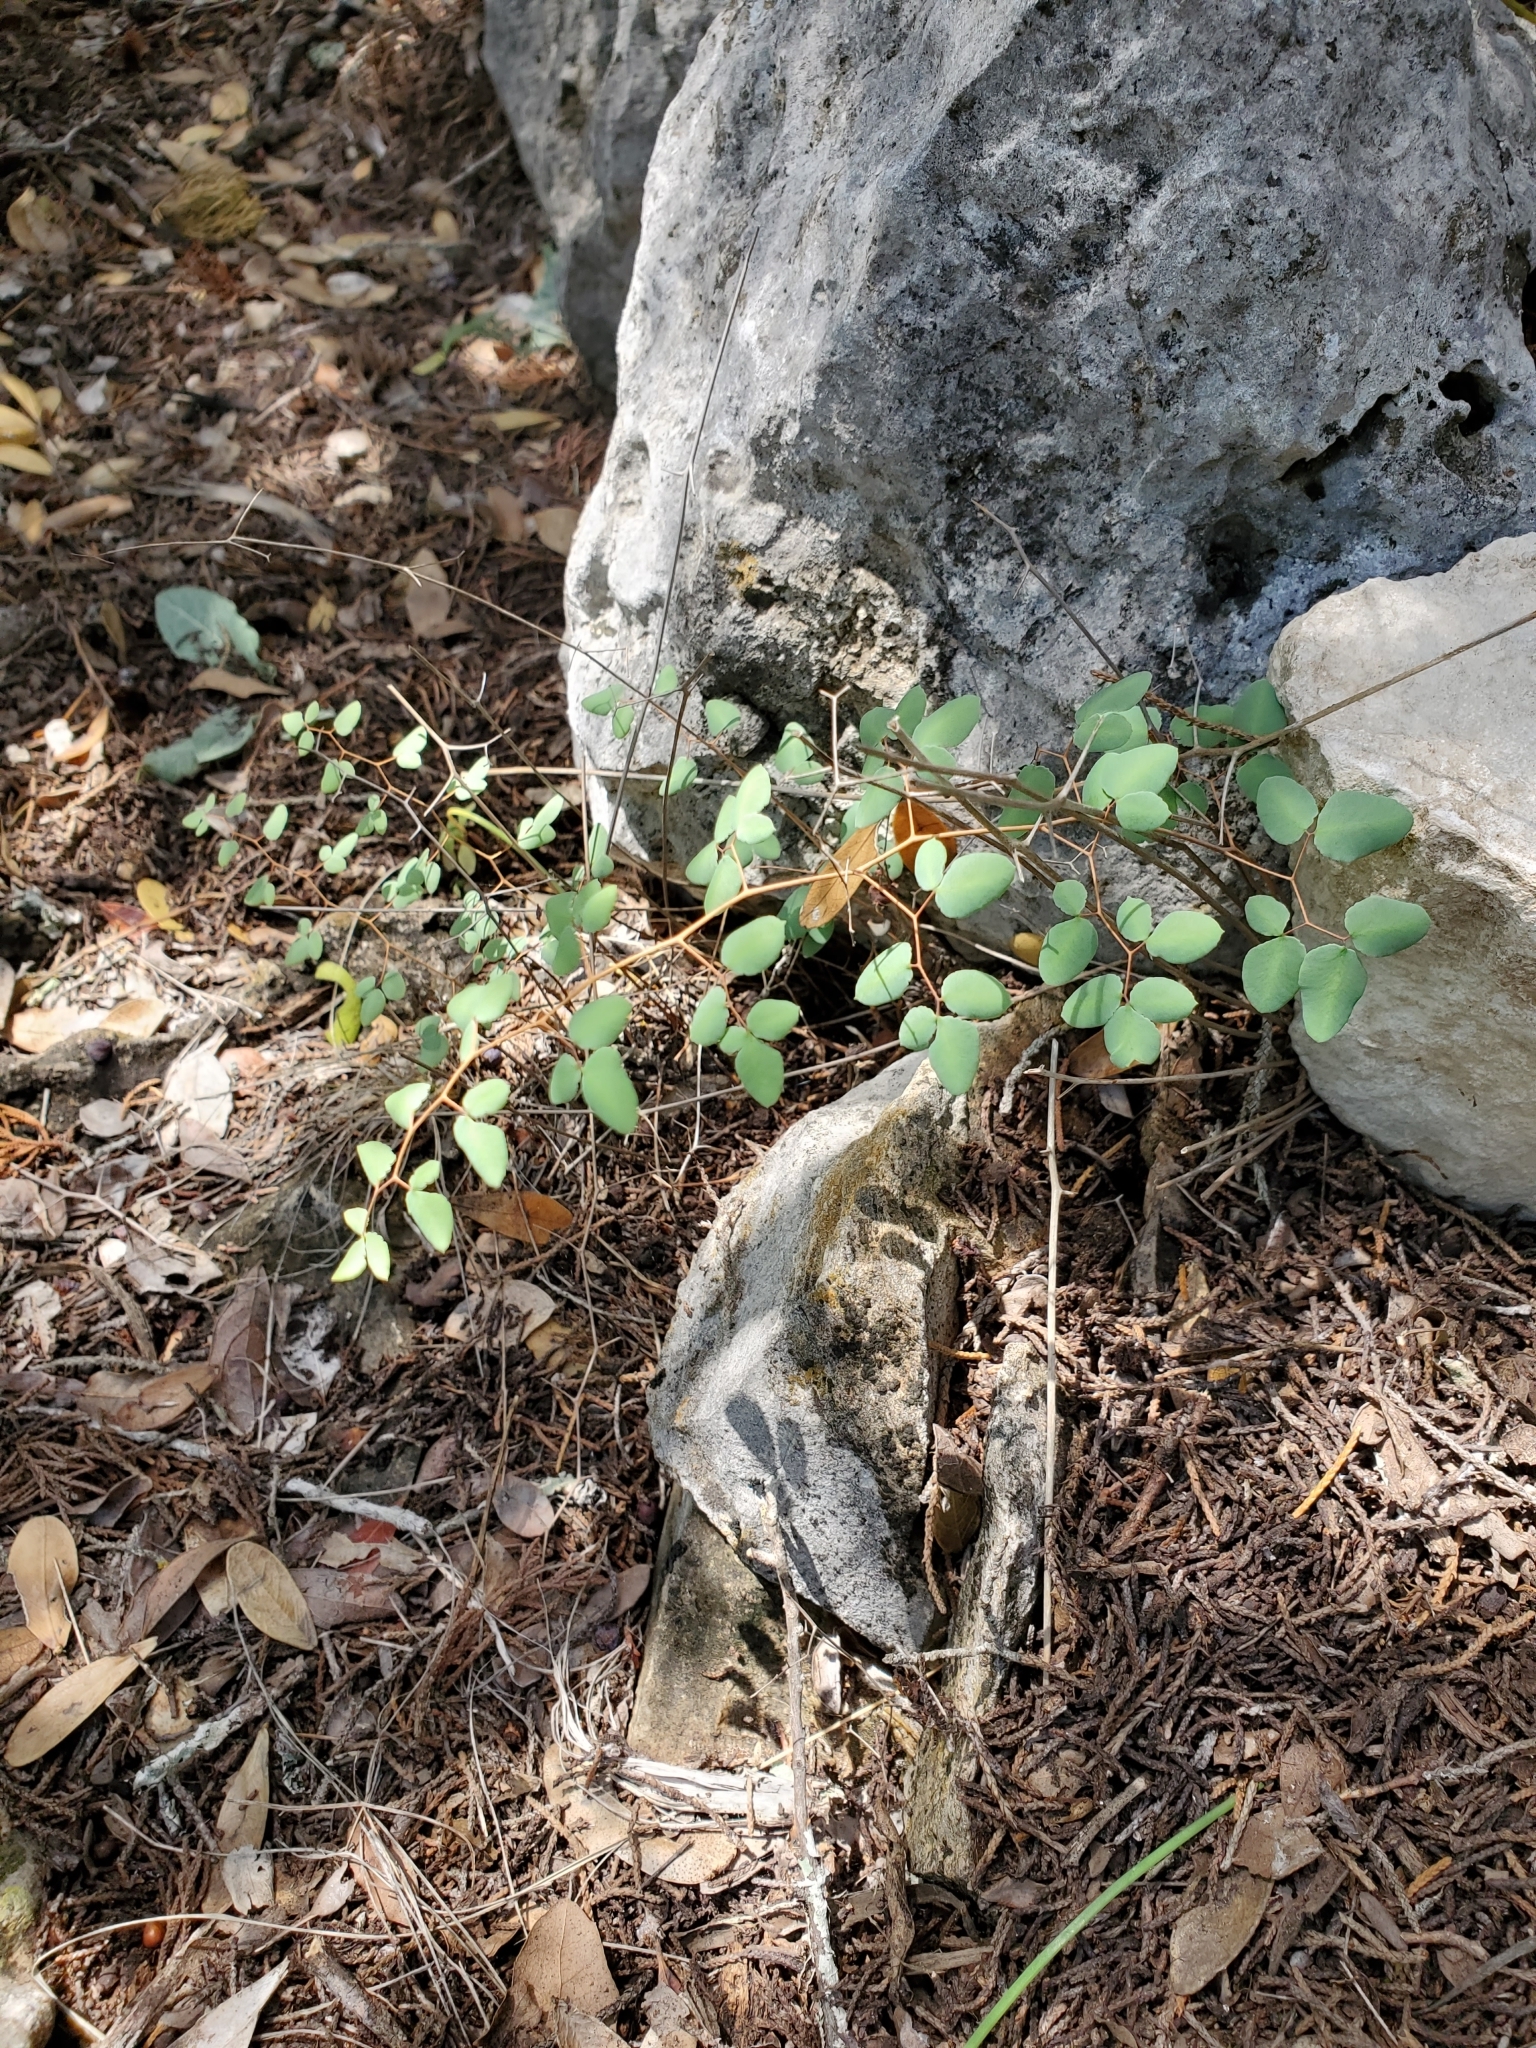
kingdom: Plantae
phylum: Tracheophyta
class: Polypodiopsida
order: Polypodiales
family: Pteridaceae
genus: Pellaea
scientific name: Pellaea ovata
